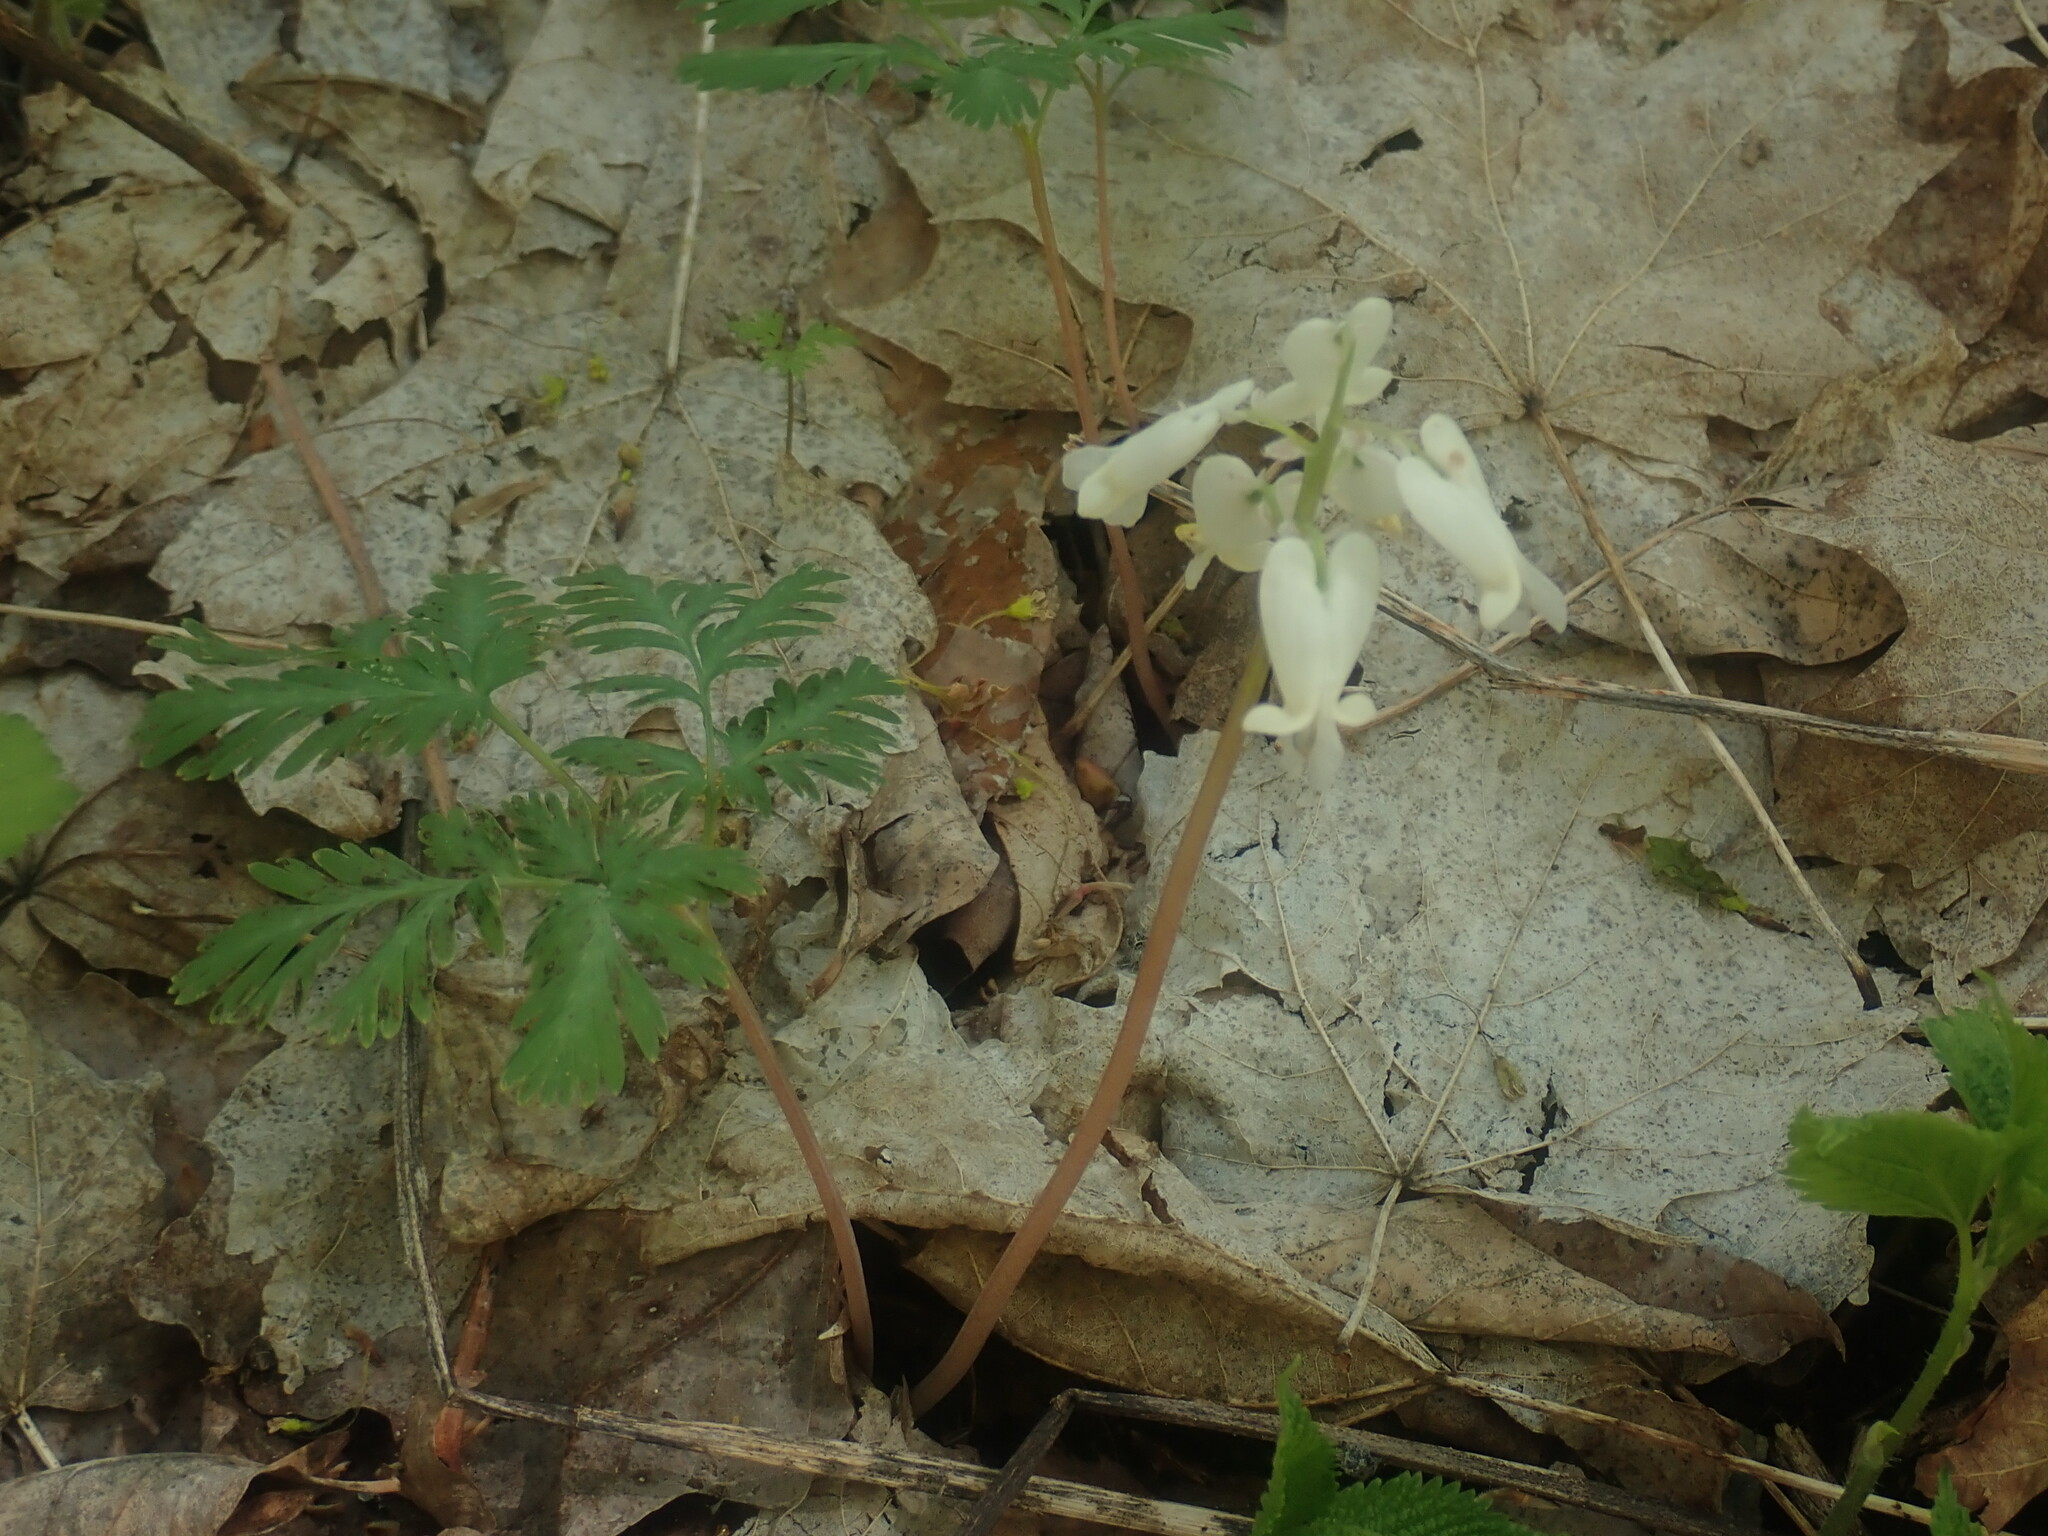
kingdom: Plantae
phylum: Tracheophyta
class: Magnoliopsida
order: Ranunculales
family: Papaveraceae
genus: Dicentra
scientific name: Dicentra canadensis
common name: Squirrel-corn
